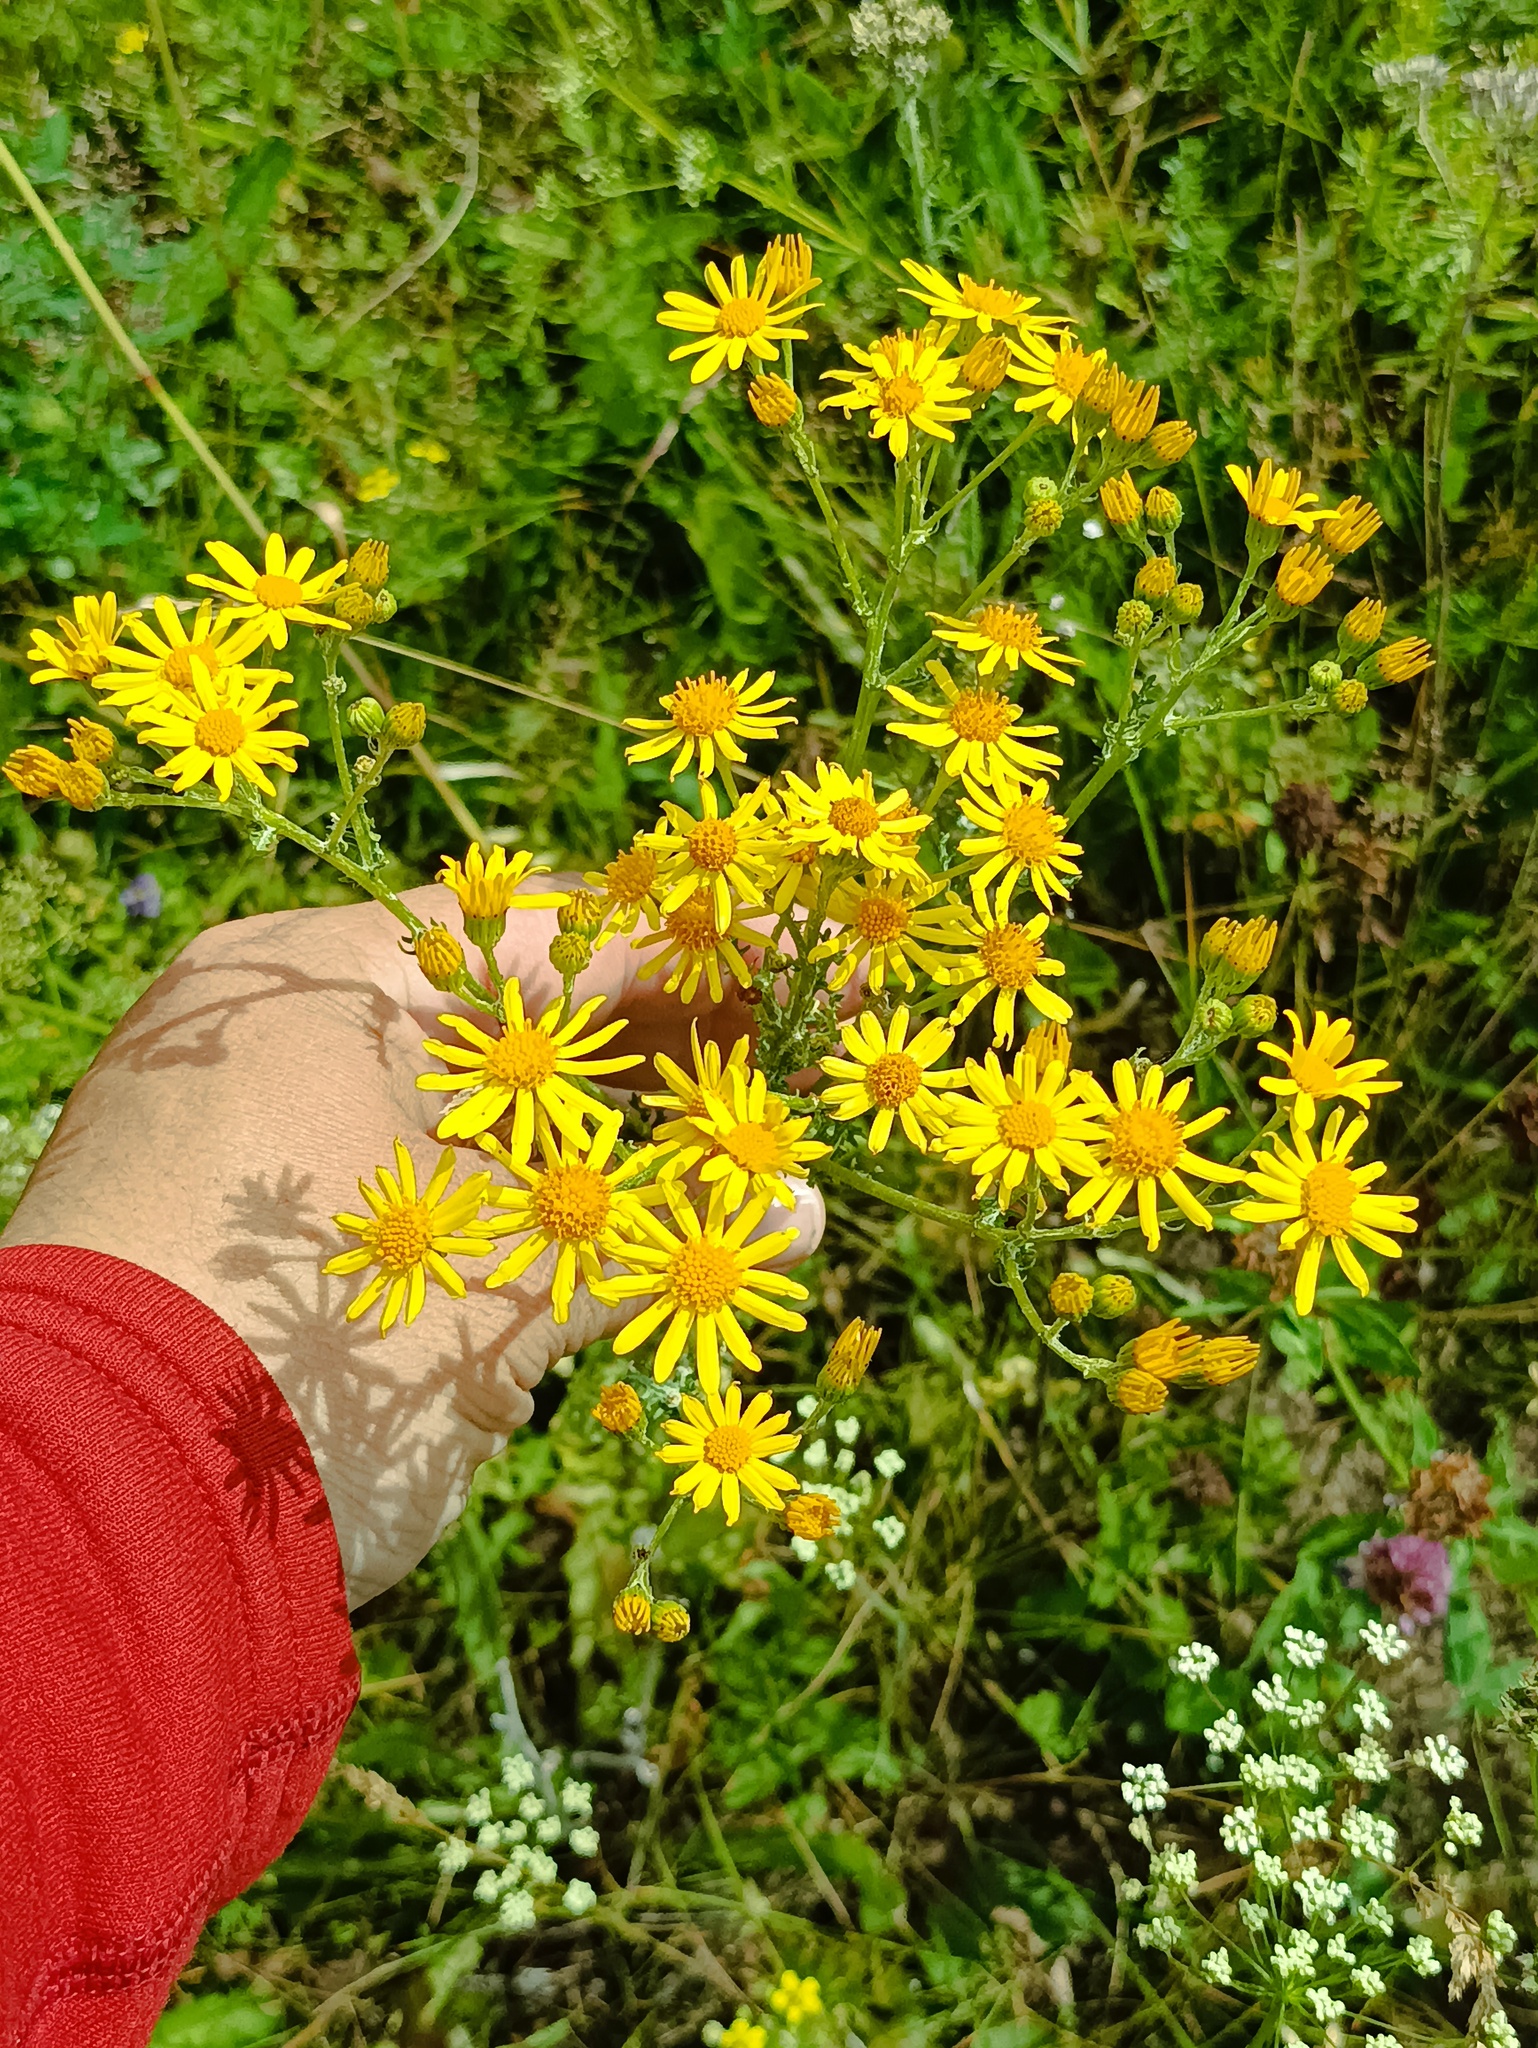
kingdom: Plantae
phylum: Tracheophyta
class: Magnoliopsida
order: Asterales
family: Asteraceae
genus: Jacobaea
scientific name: Jacobaea vulgaris
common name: Stinking willie
